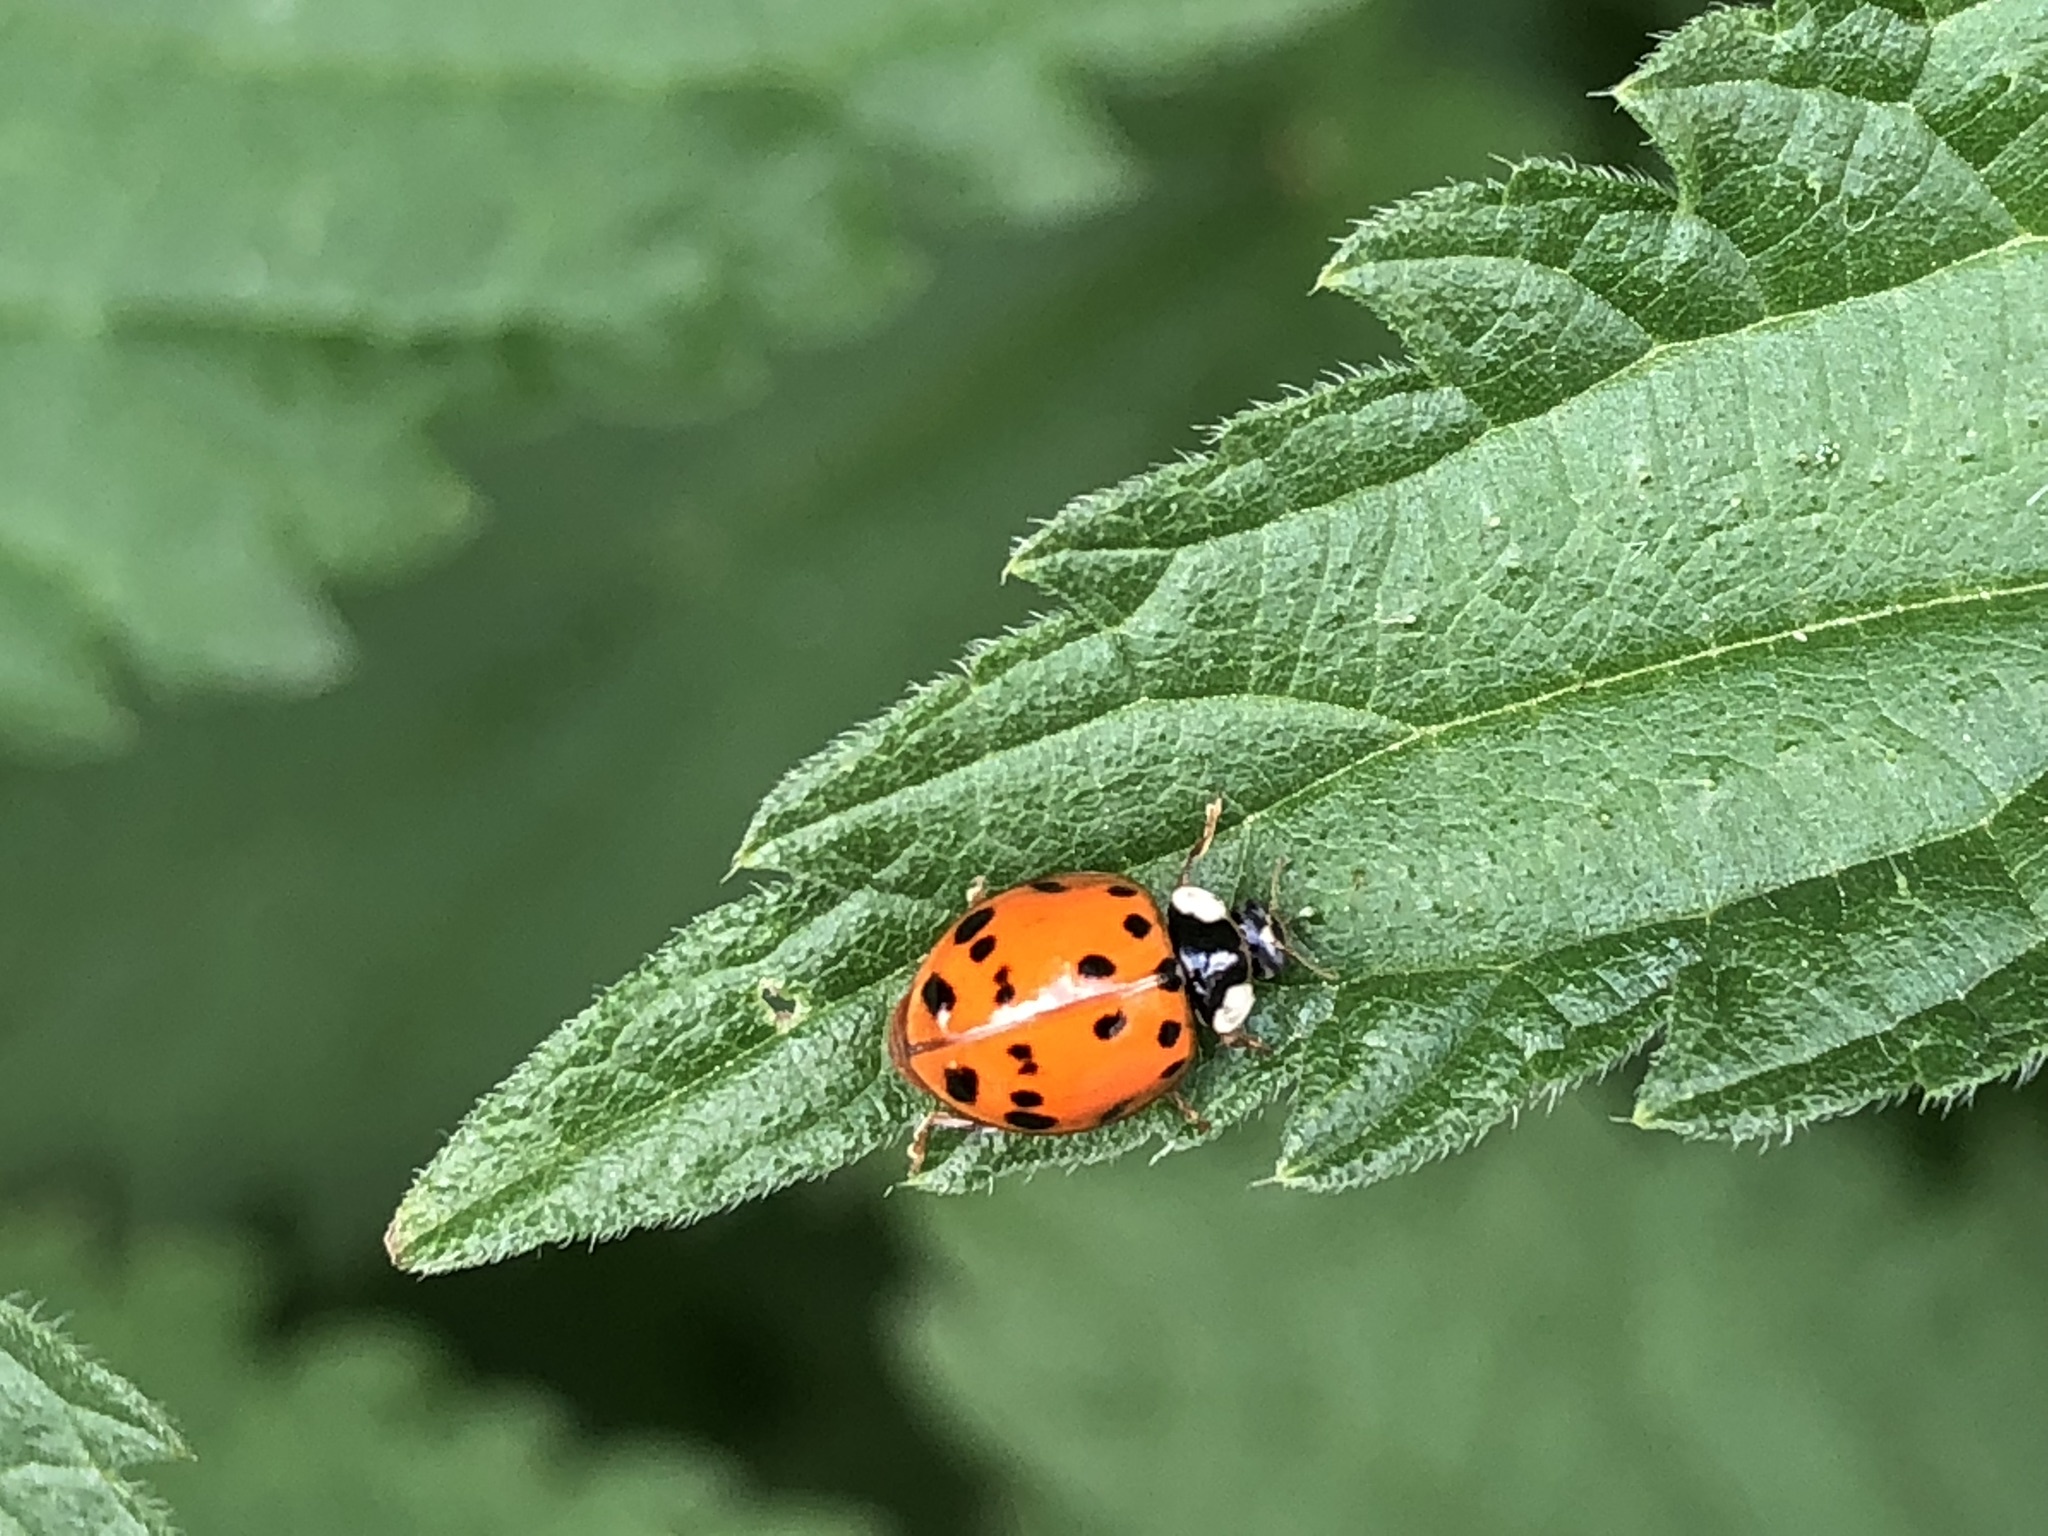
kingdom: Animalia
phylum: Arthropoda
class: Insecta
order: Coleoptera
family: Coccinellidae
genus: Harmonia
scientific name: Harmonia axyridis
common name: Harlequin ladybird
